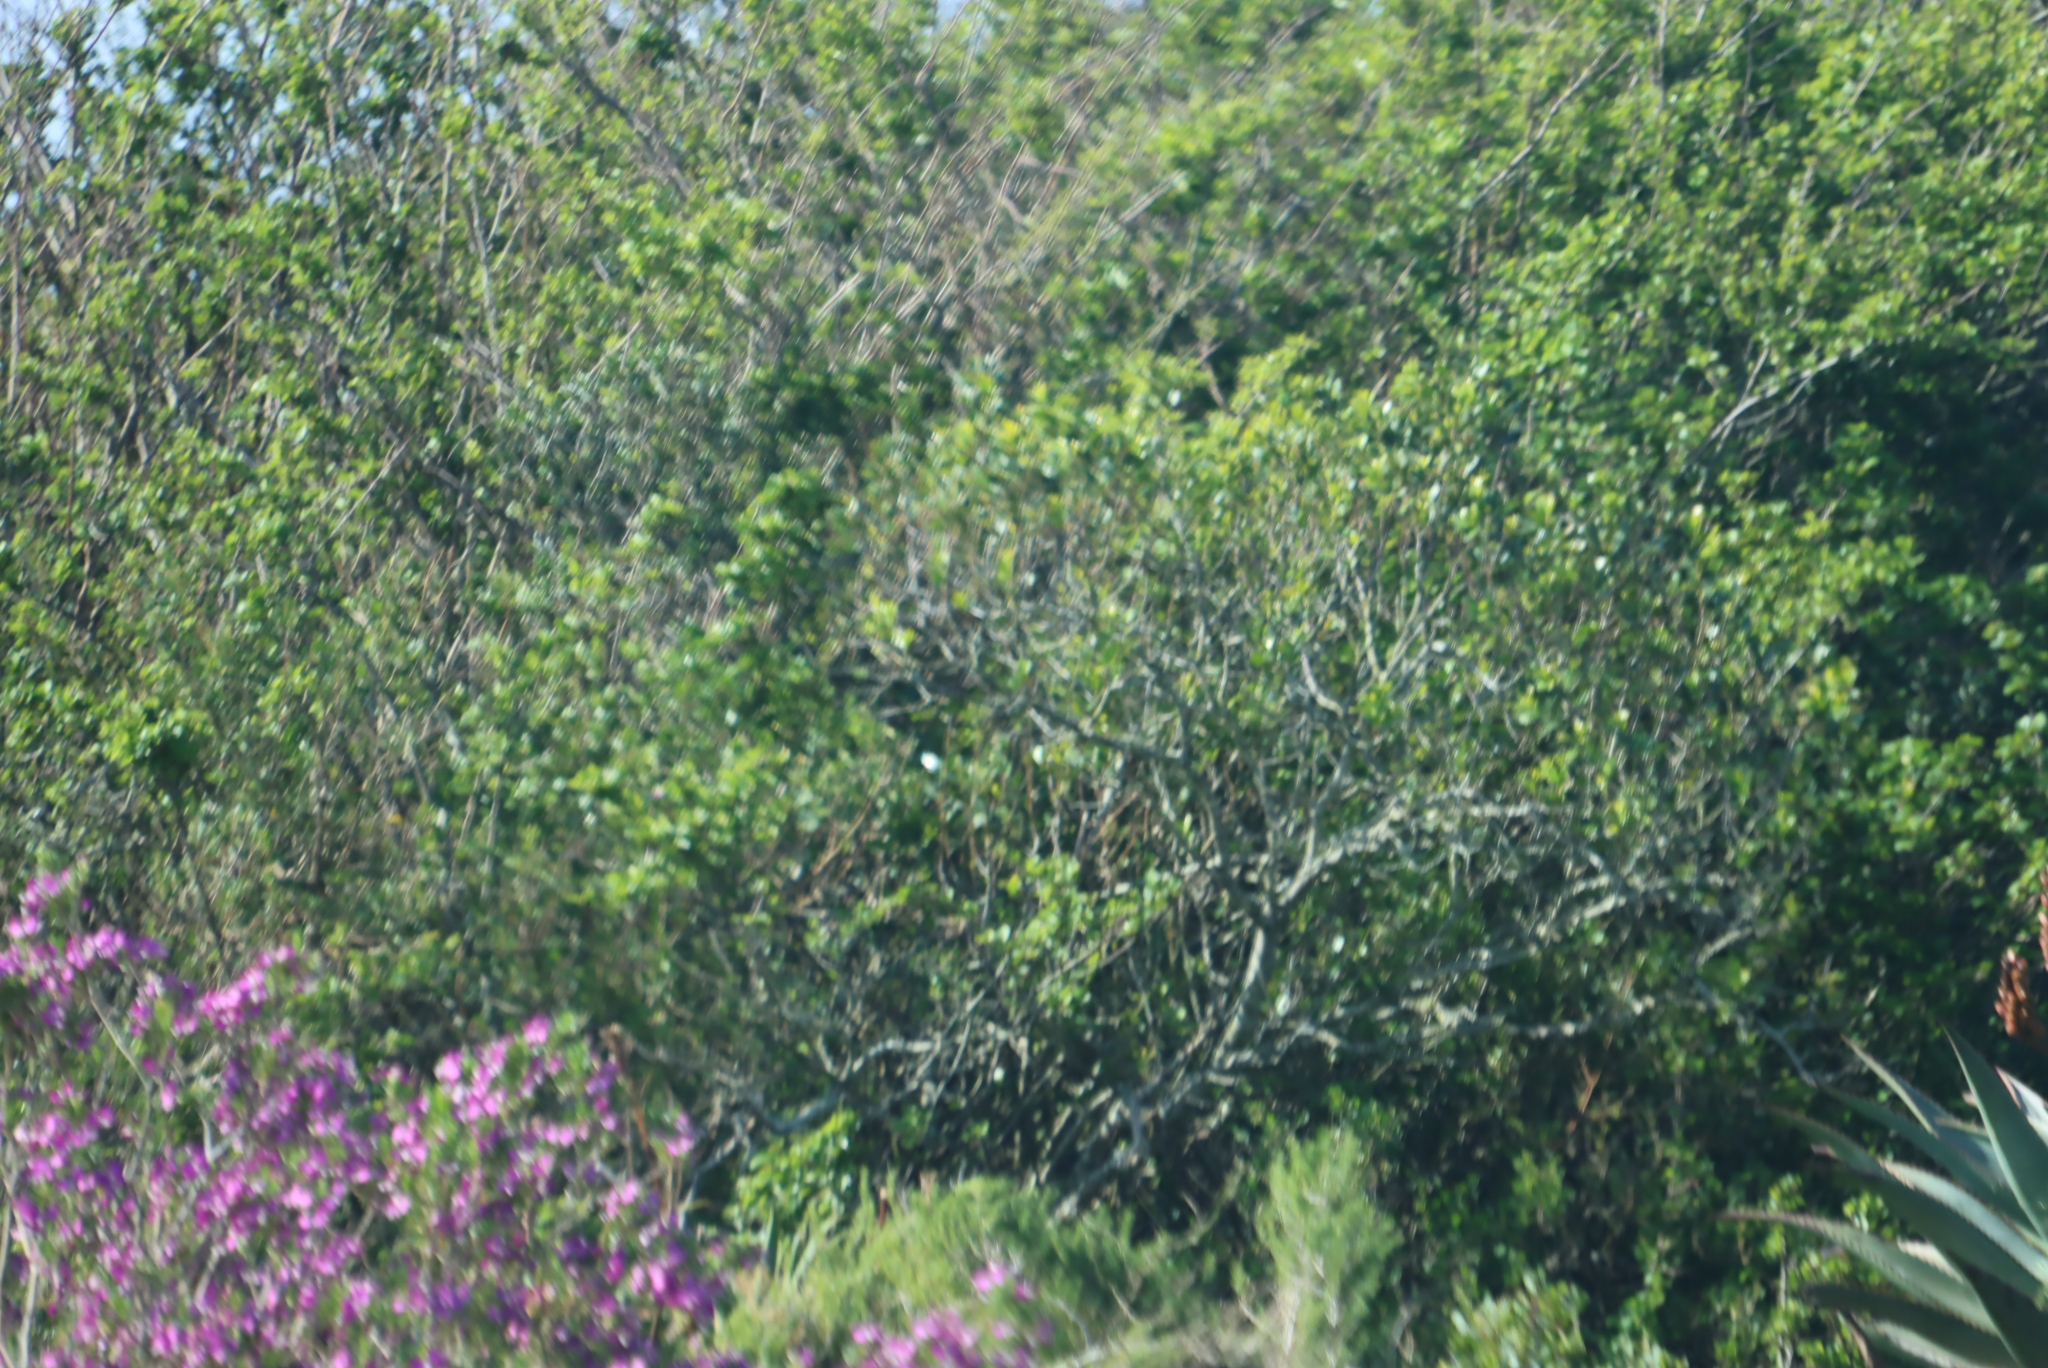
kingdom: Plantae
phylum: Tracheophyta
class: Magnoliopsida
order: Fabales
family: Polygalaceae
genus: Polygala
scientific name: Polygala myrtifolia
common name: Myrtle-leaf milkwort
